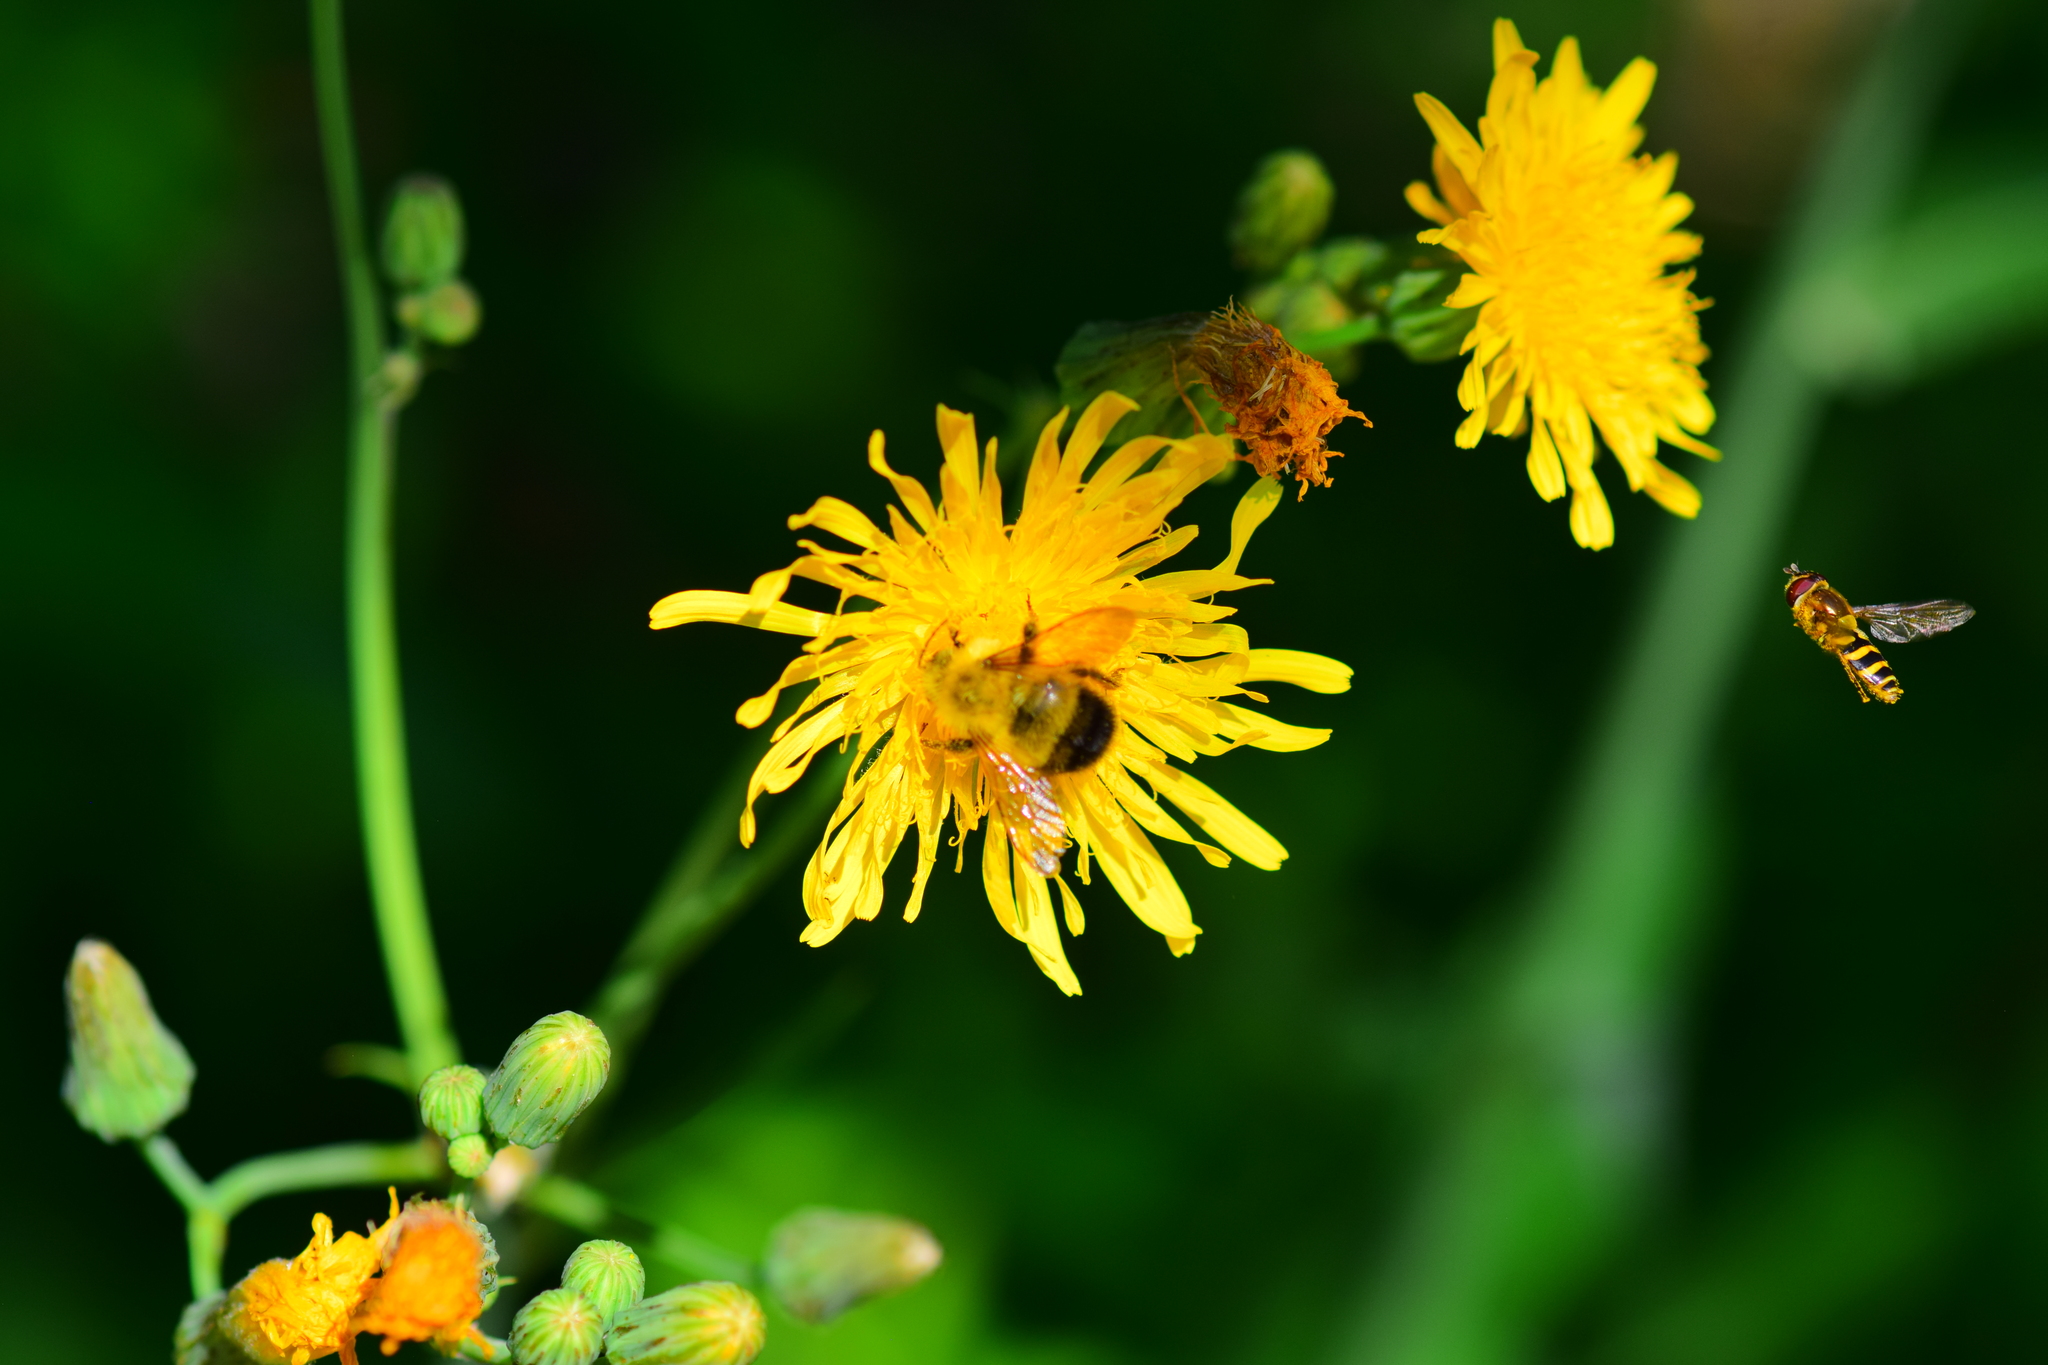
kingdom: Animalia
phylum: Arthropoda
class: Insecta
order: Diptera
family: Syrphidae
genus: Syrphus
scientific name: Syrphus
